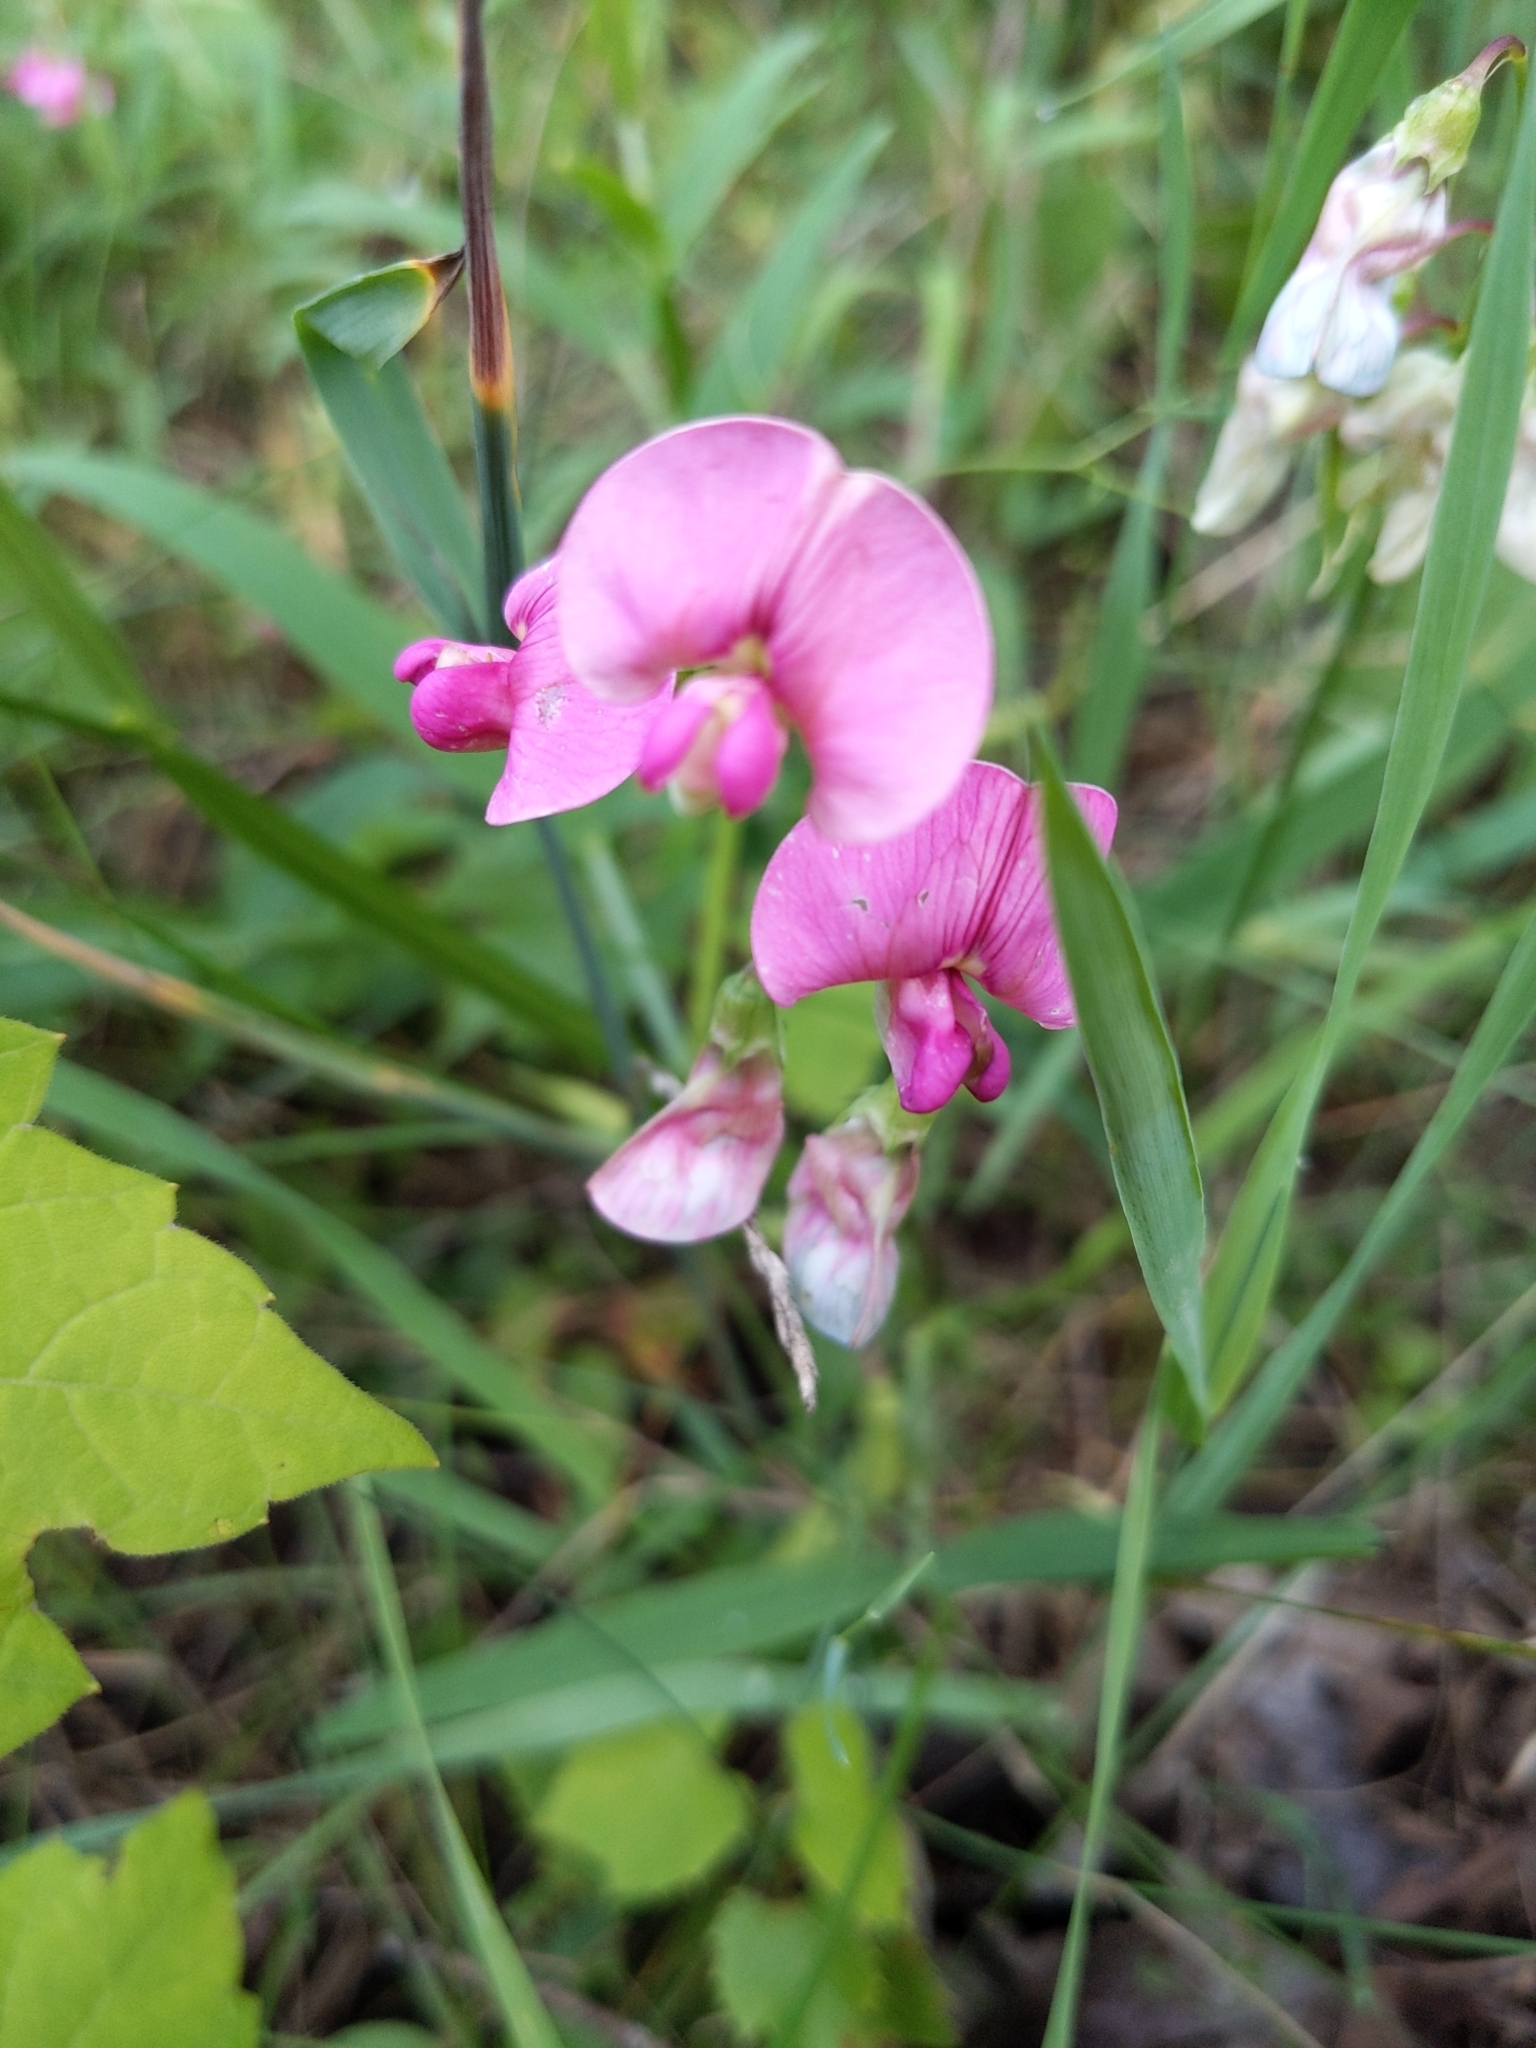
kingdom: Plantae
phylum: Tracheophyta
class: Magnoliopsida
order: Fabales
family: Fabaceae
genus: Lathyrus
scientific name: Lathyrus sylvestris
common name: Flat pea
